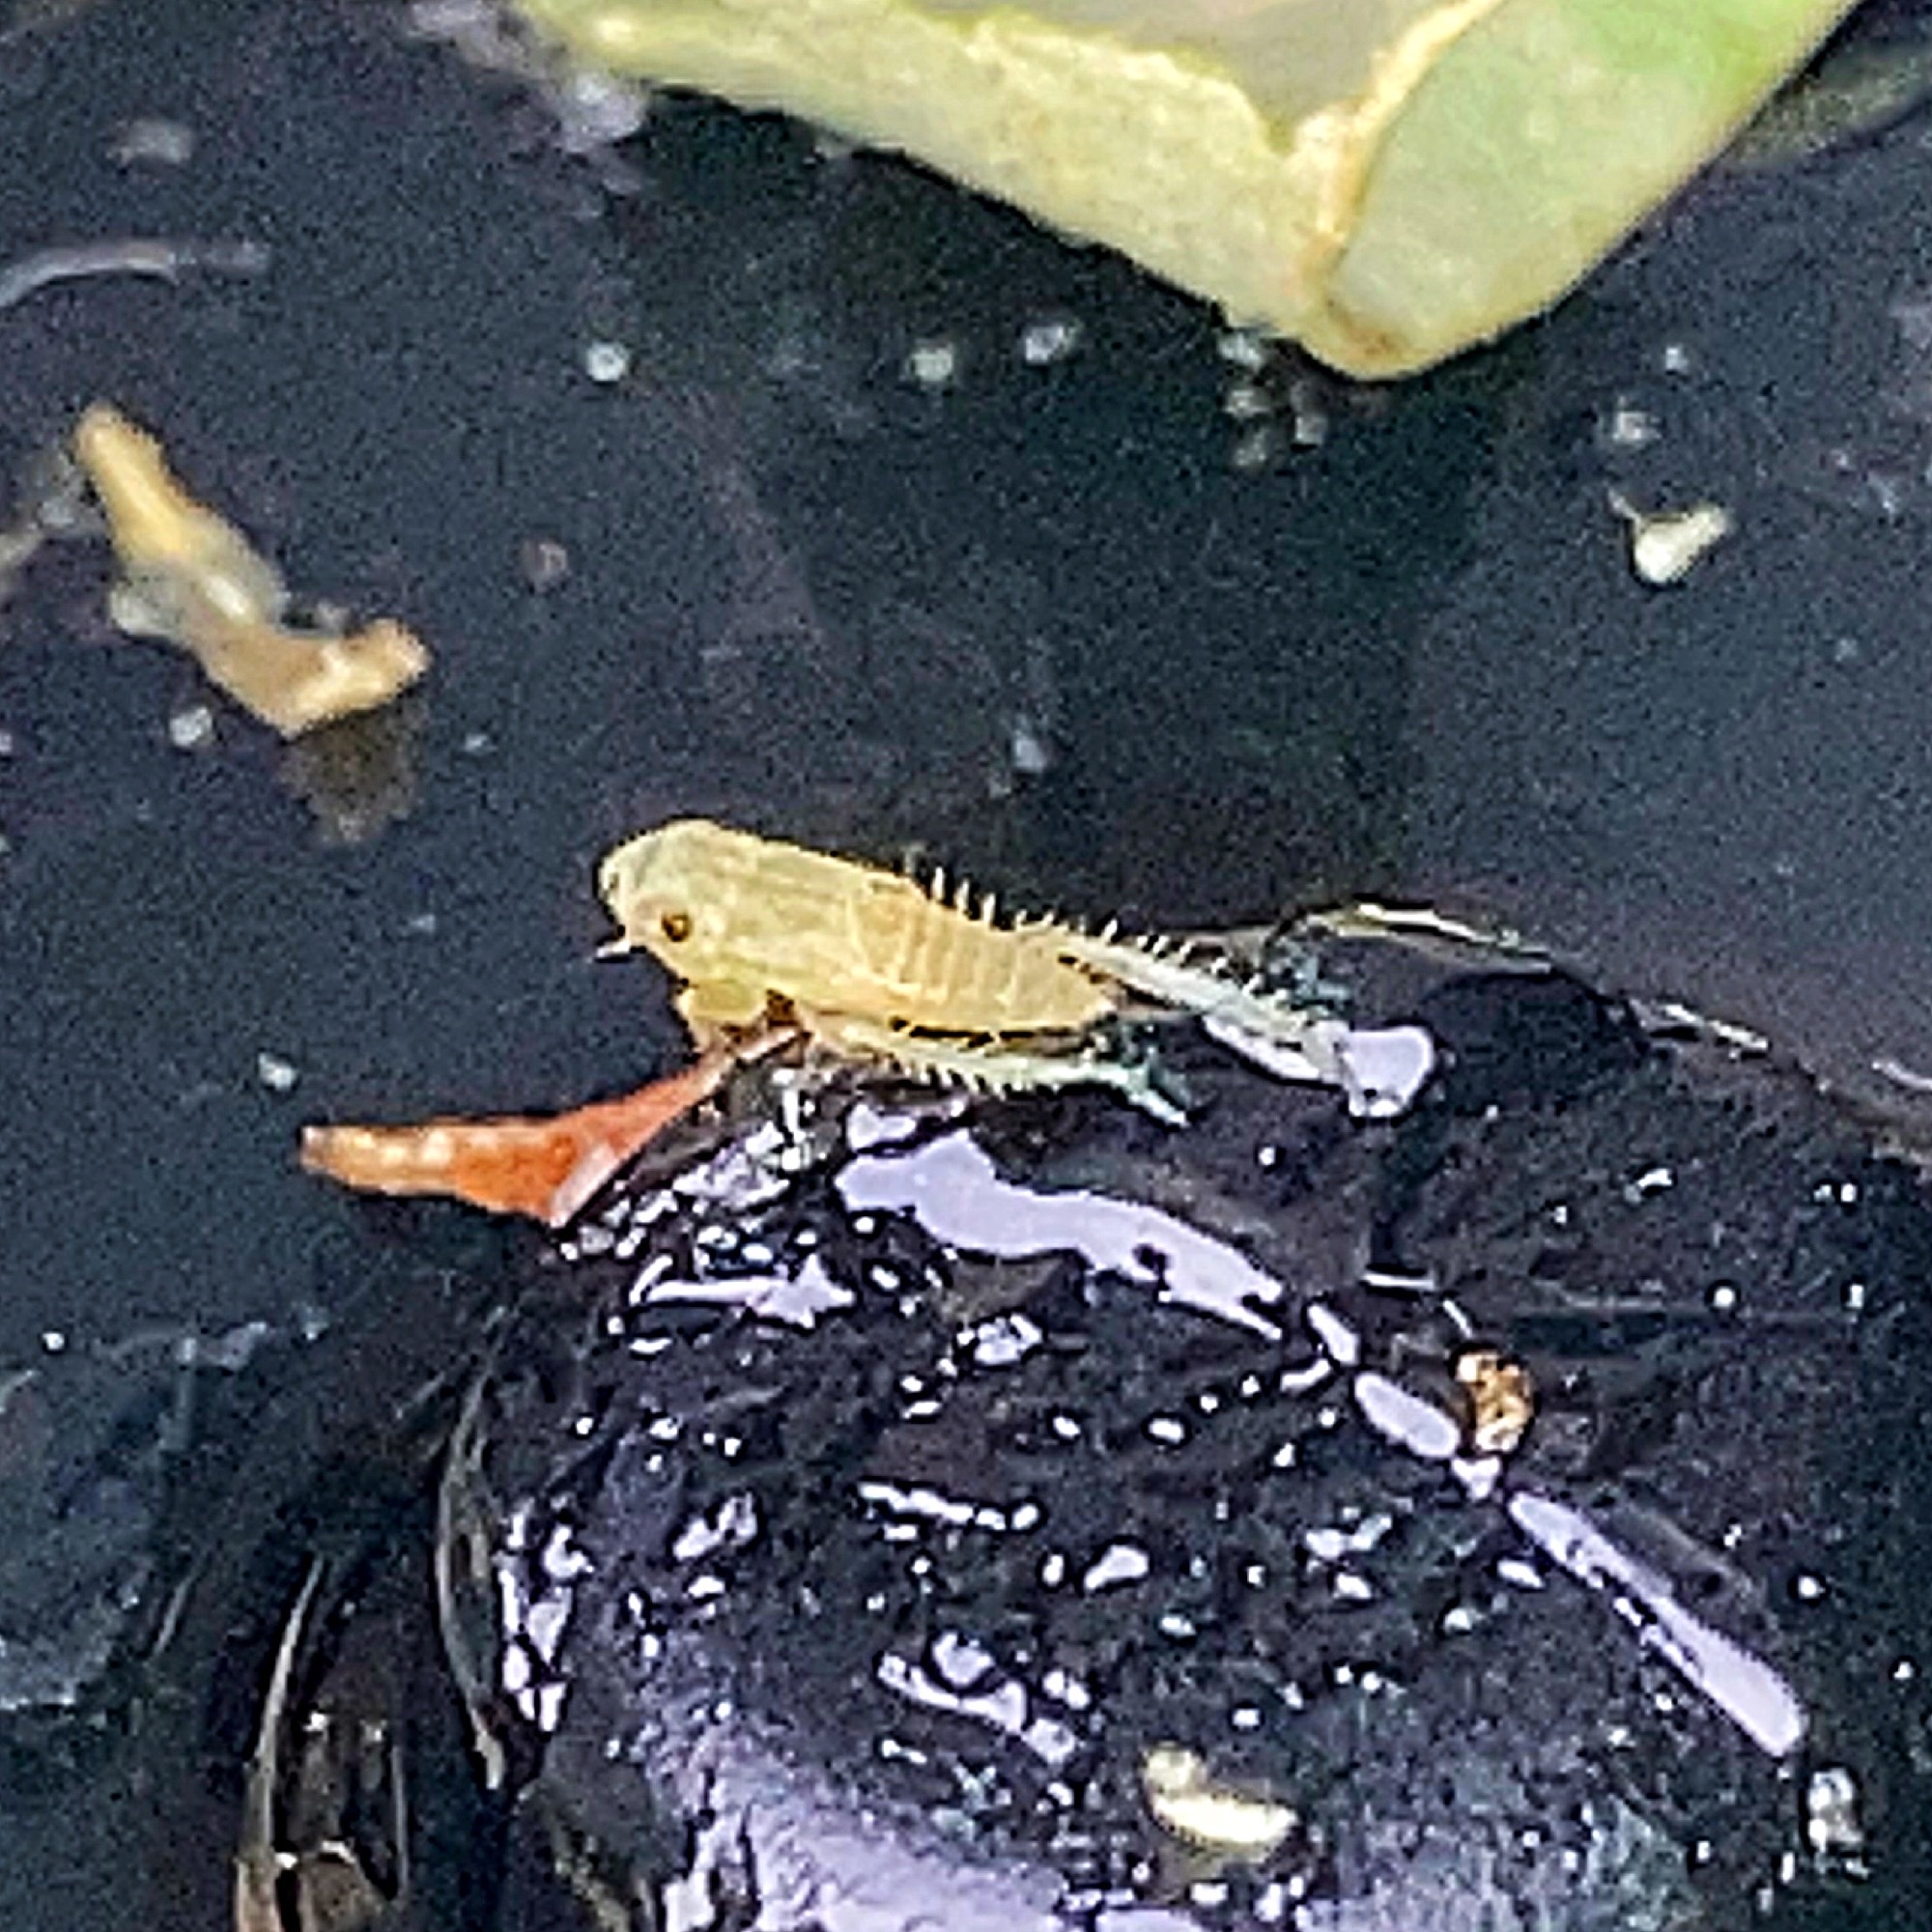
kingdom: Animalia
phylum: Arthropoda
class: Insecta
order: Hemiptera
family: Cicadellidae
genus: Exitianus
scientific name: Exitianus exitiosus
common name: Gray lawn leafhopper
